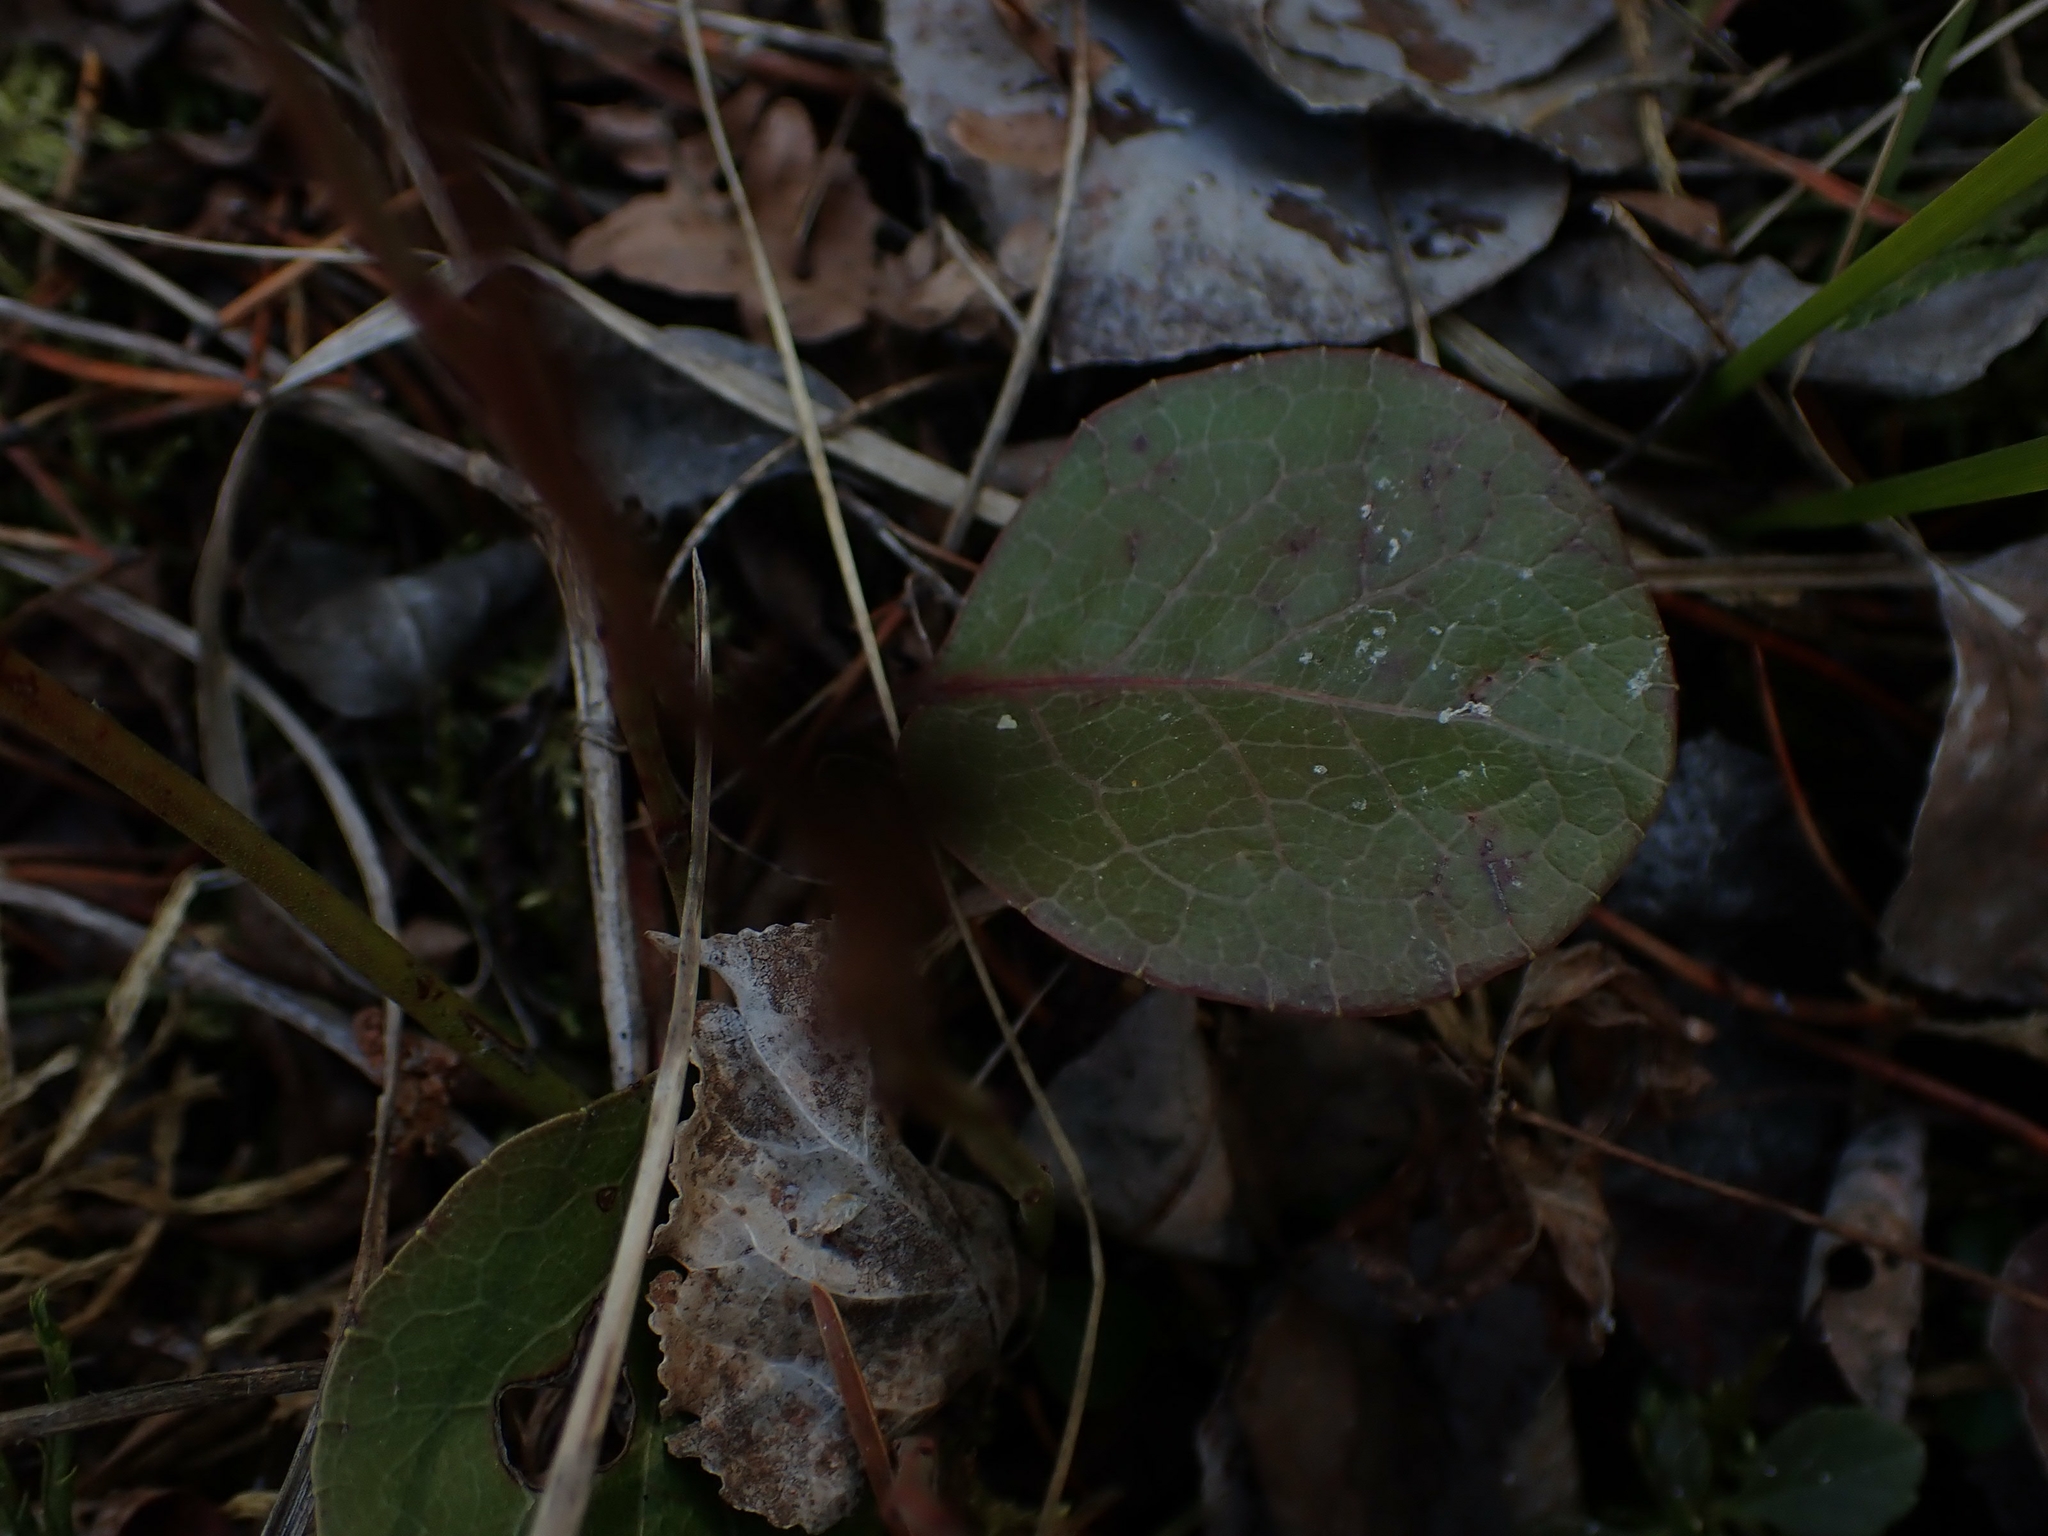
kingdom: Plantae
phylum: Tracheophyta
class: Magnoliopsida
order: Ericales
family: Ericaceae
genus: Pyrola
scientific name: Pyrola americana
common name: American wintergreen
